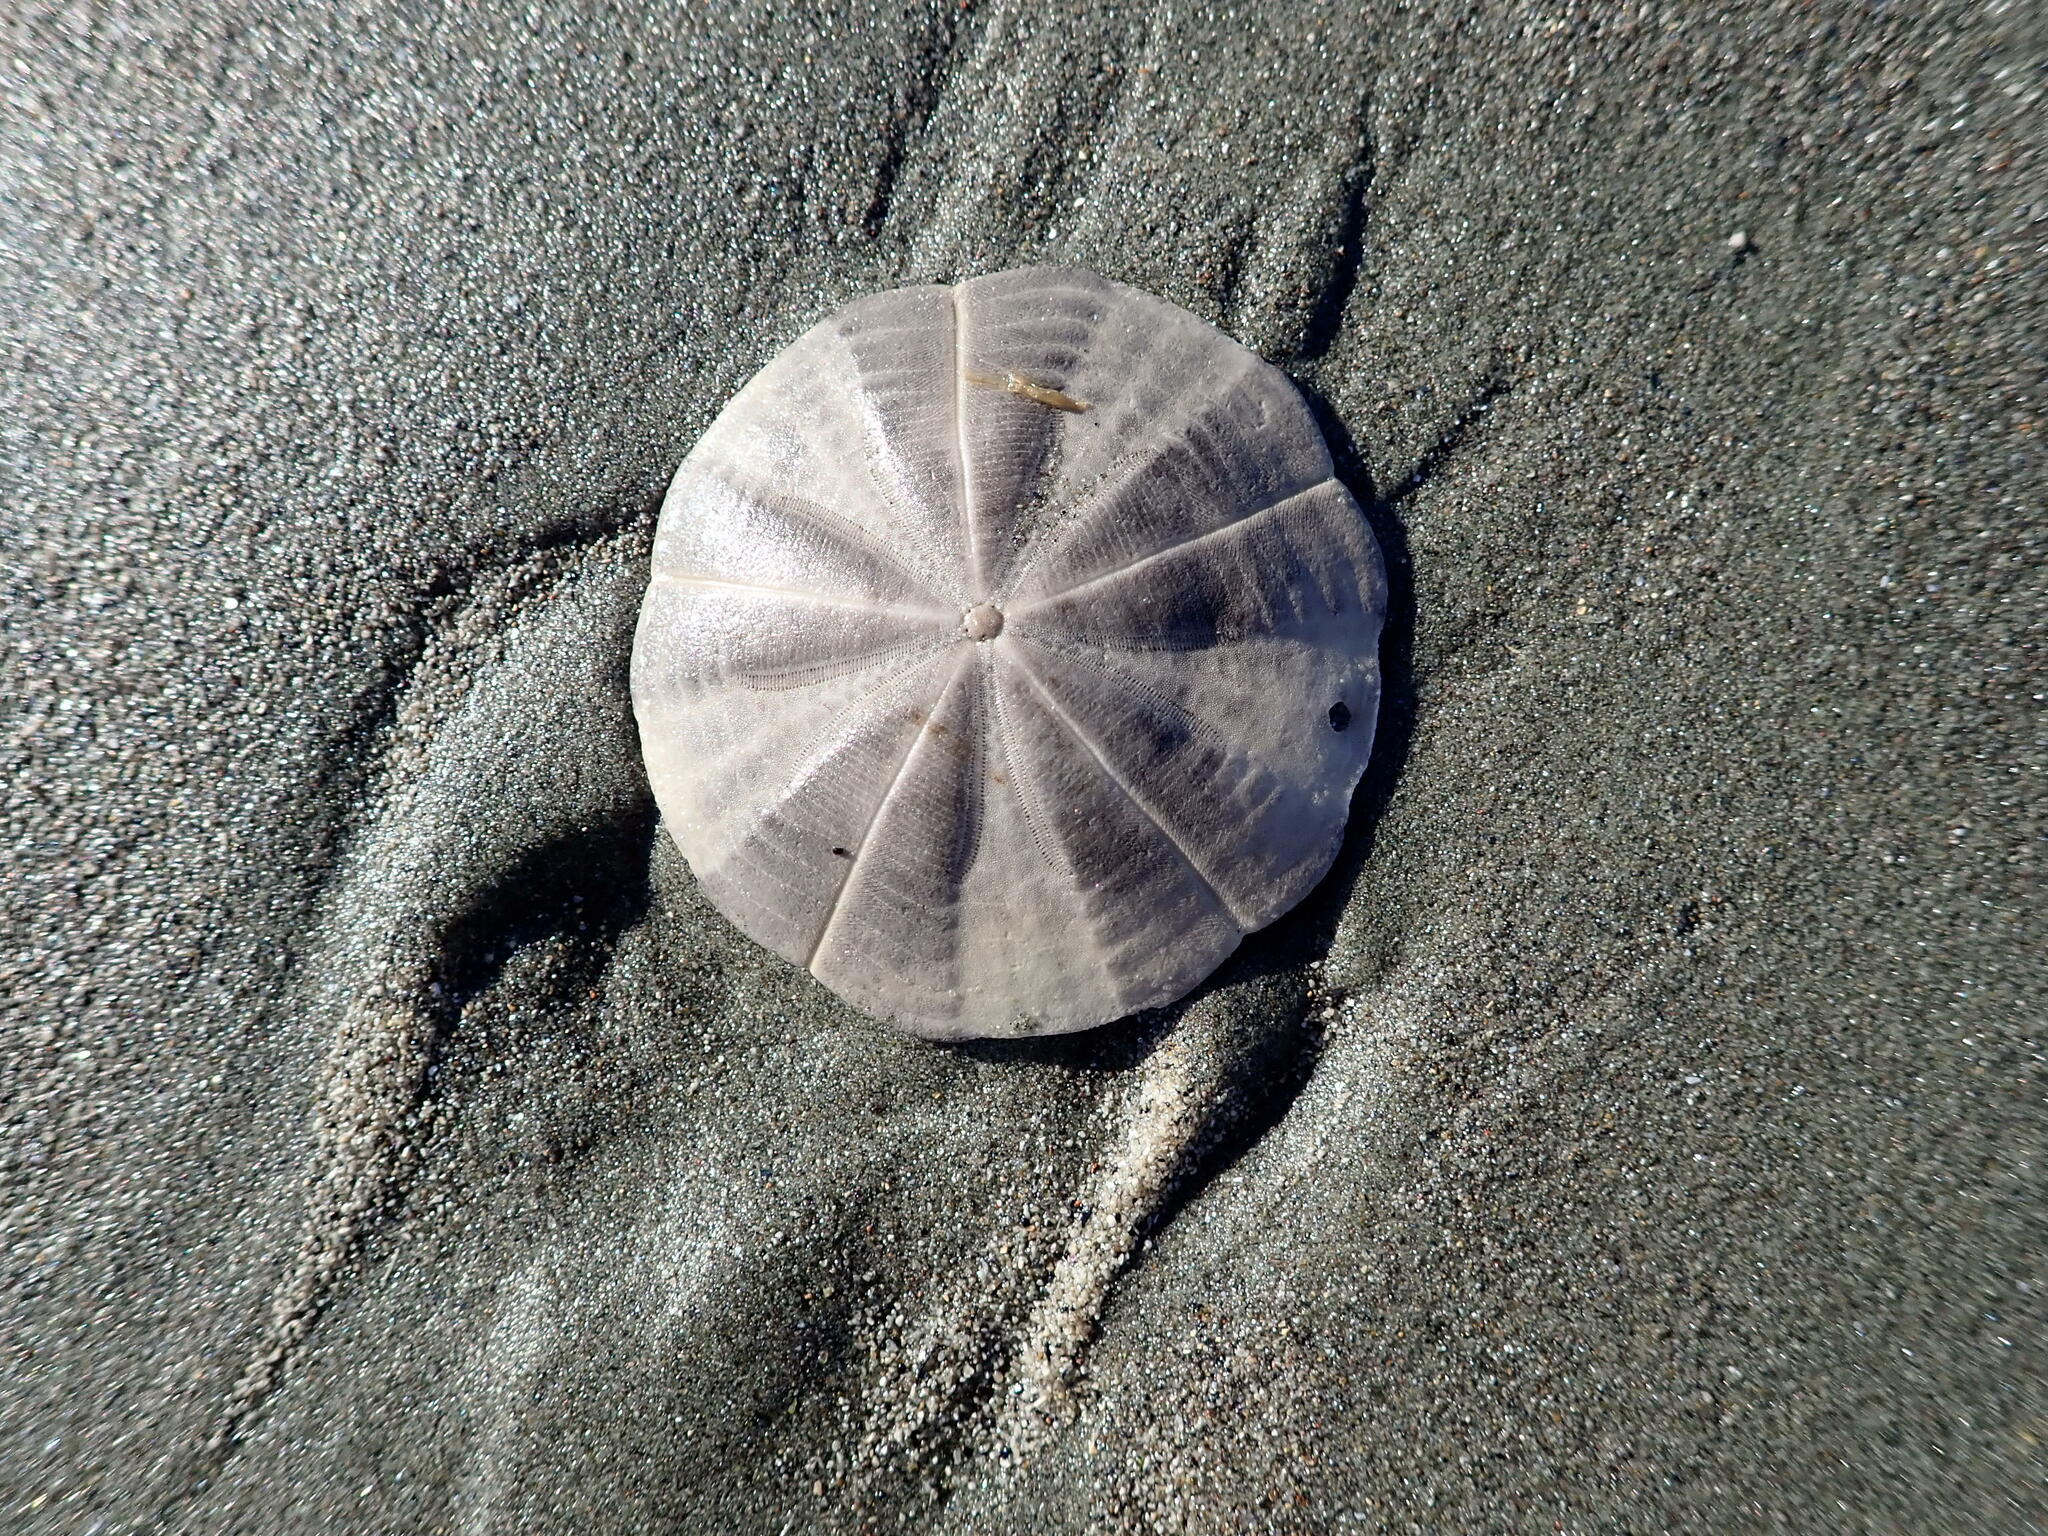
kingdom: Animalia
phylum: Echinodermata
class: Echinoidea
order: Clypeasteroida
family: Clypeasteridae
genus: Fellaster
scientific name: Fellaster zelandiae
